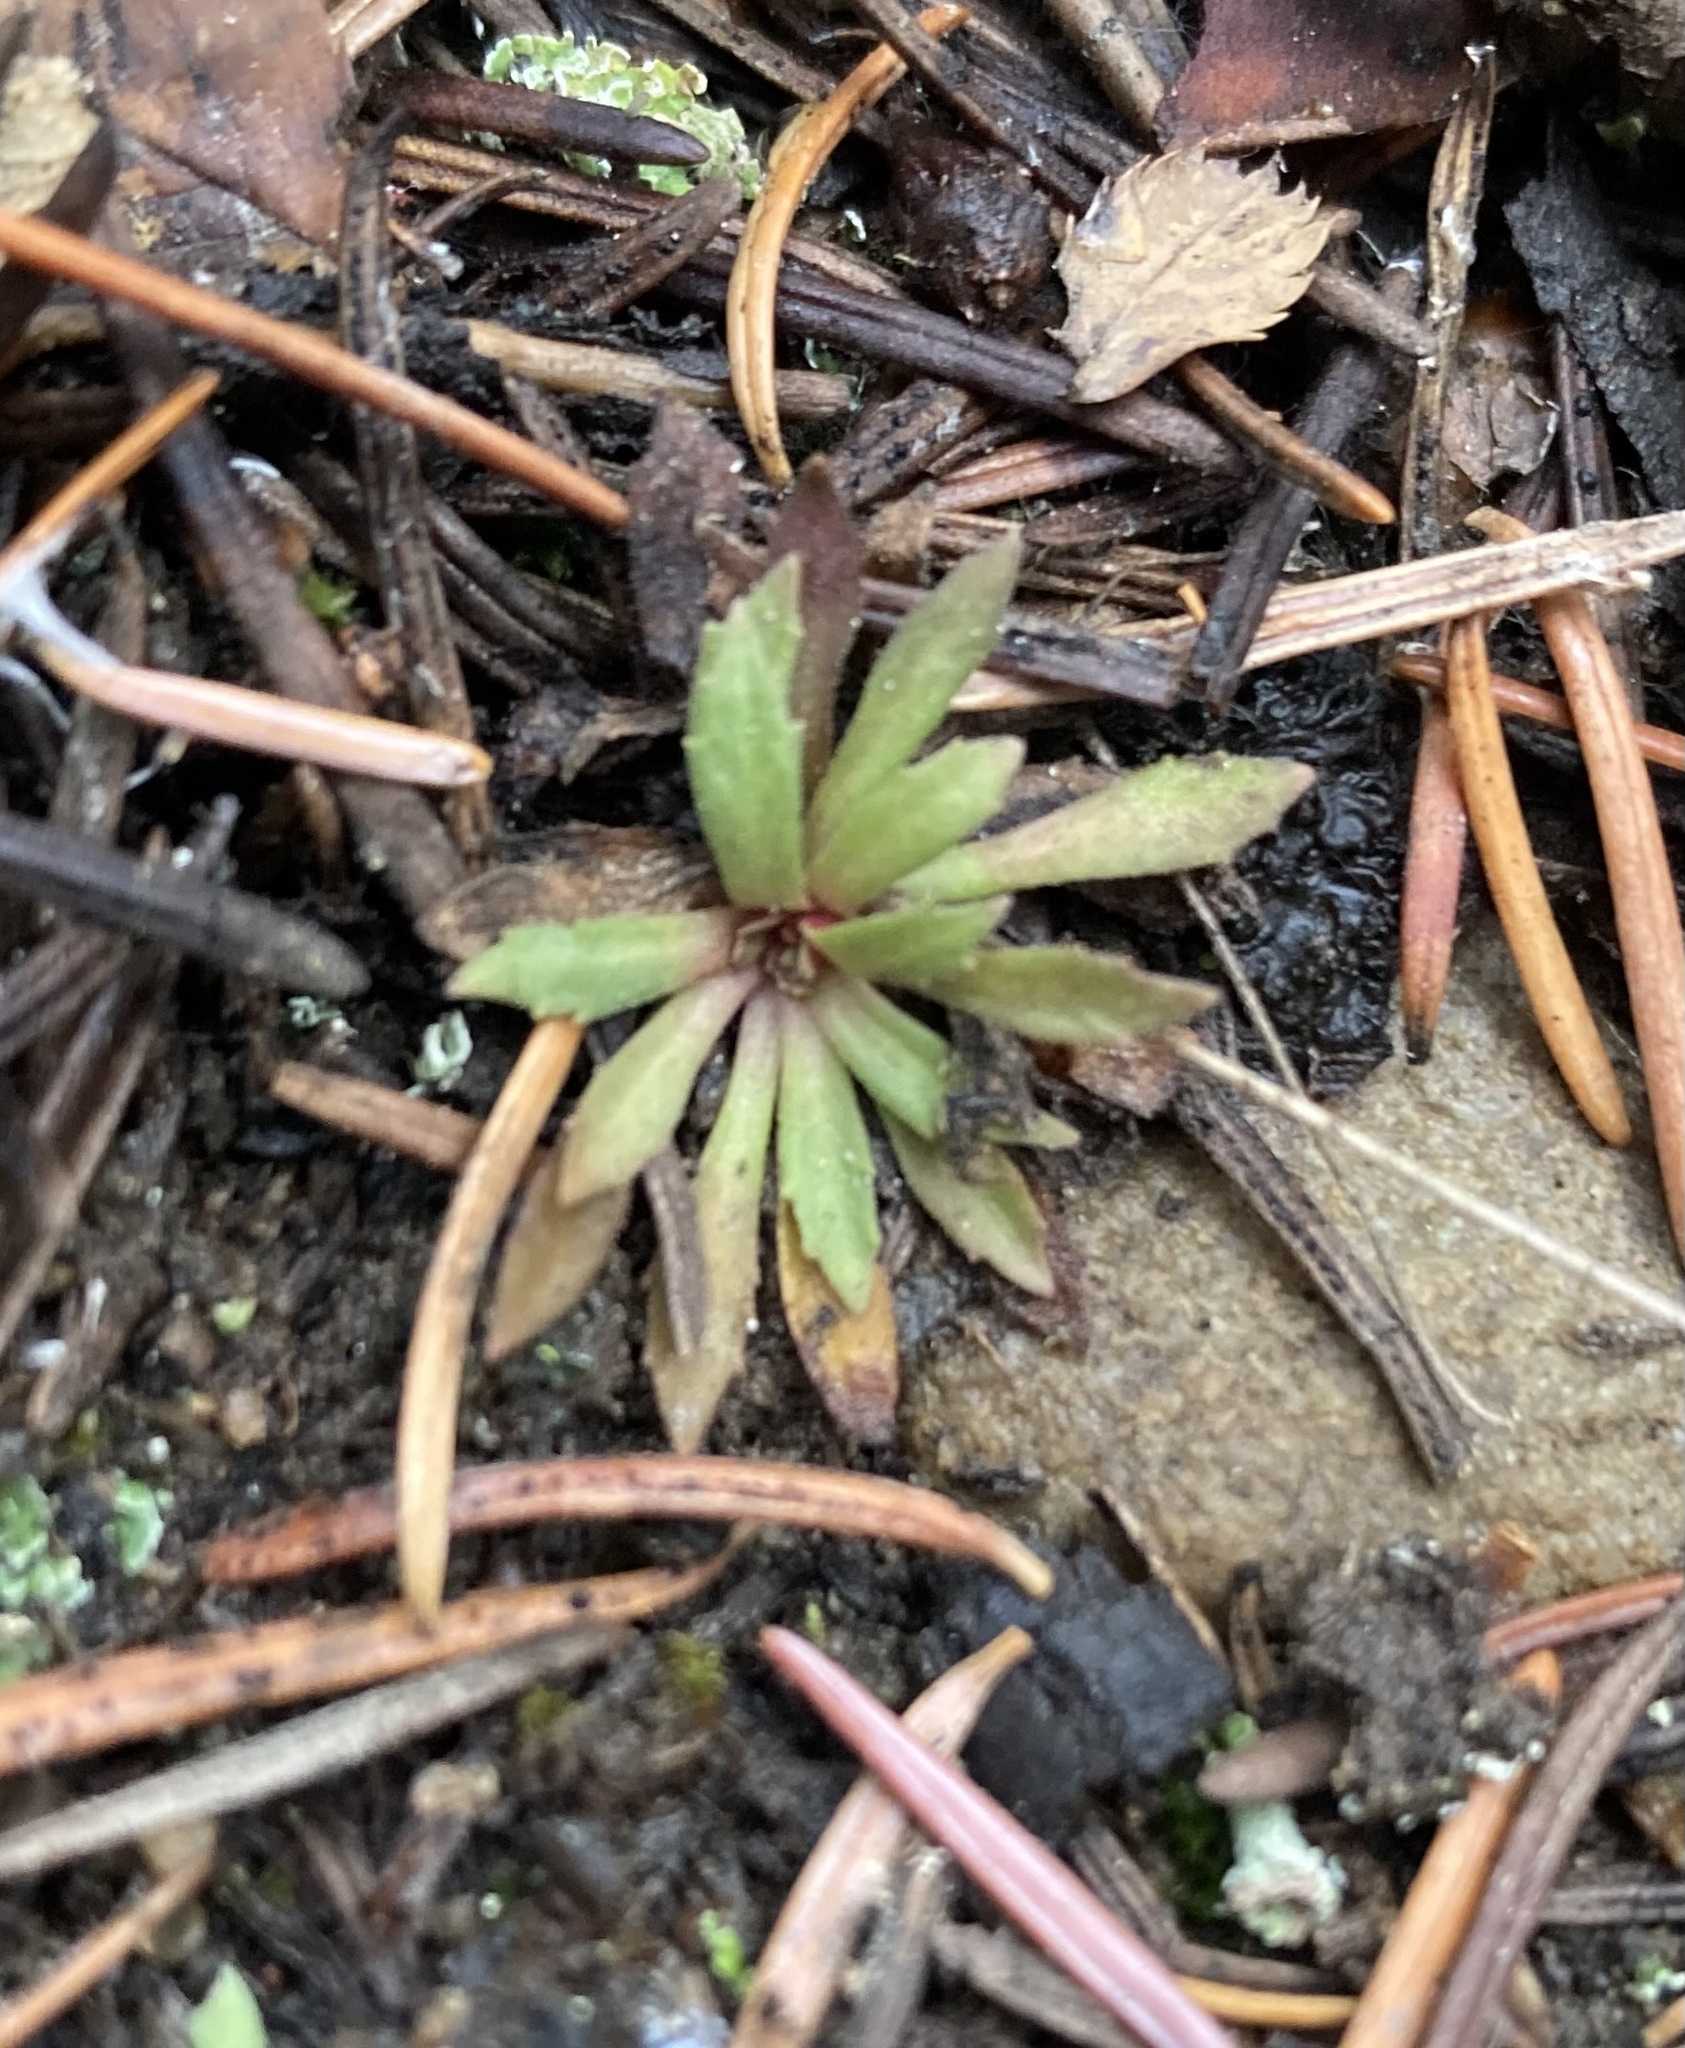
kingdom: Plantae
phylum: Tracheophyta
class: Magnoliopsida
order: Ericales
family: Primulaceae
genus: Androsace
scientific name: Androsace septentrionalis
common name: Hairy northern fairy-candelabra
